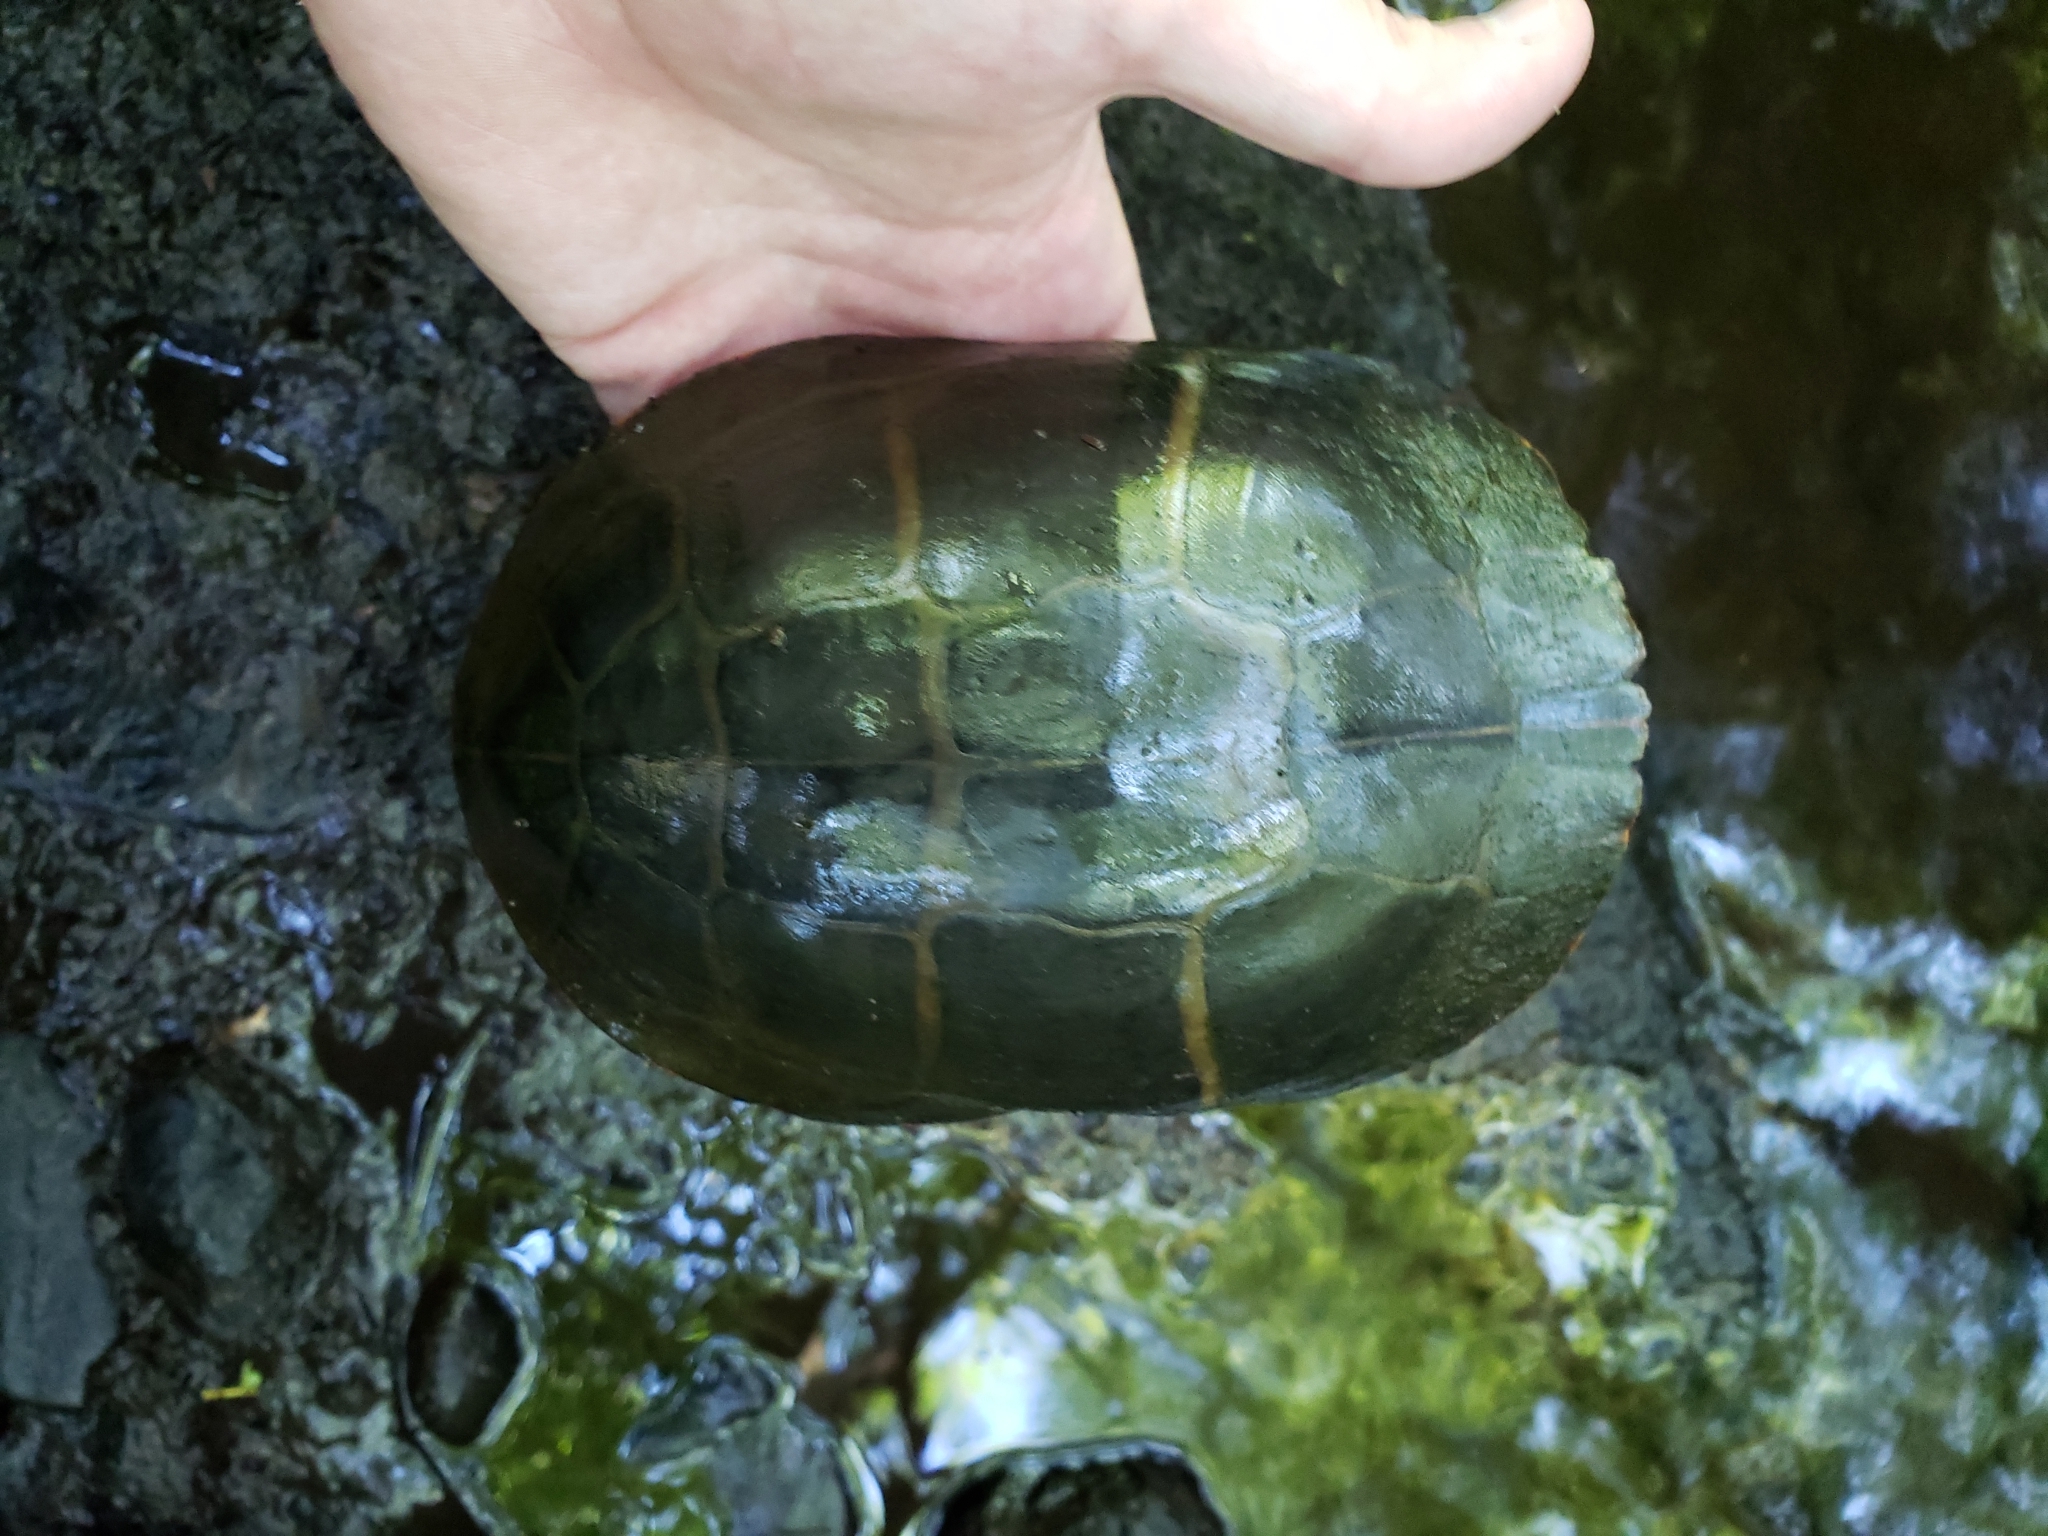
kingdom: Animalia
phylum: Chordata
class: Testudines
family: Emydidae
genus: Chrysemys
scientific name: Chrysemys picta
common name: Painted turtle
